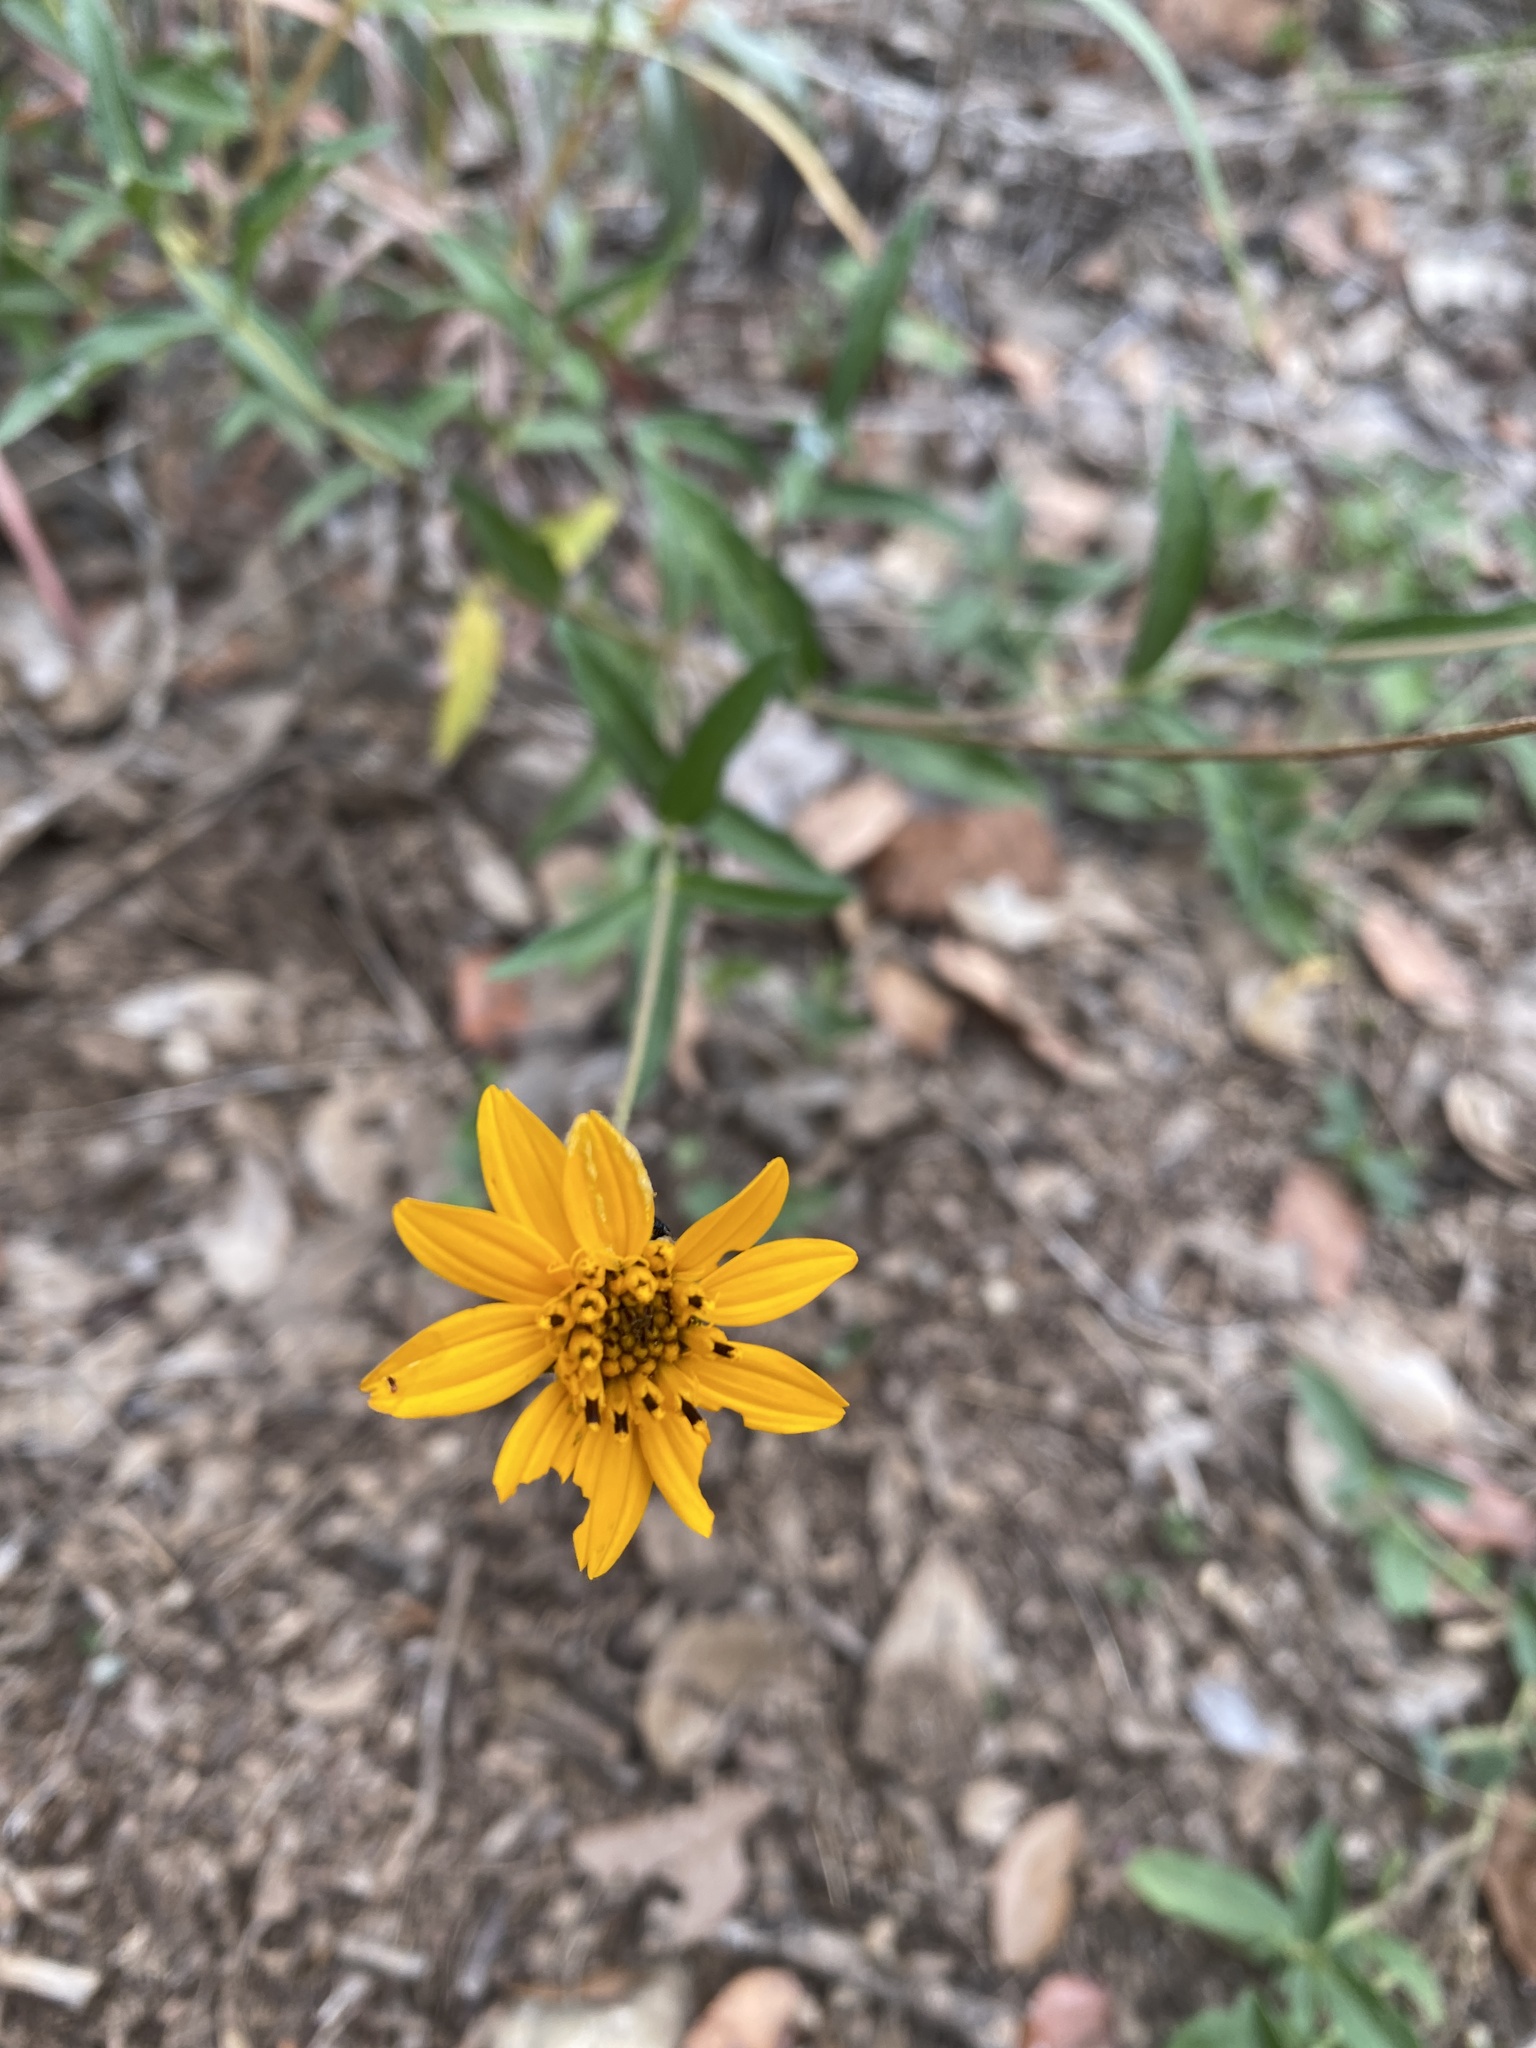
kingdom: Plantae
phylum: Tracheophyta
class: Magnoliopsida
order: Asterales
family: Asteraceae
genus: Wedelia
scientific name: Wedelia acapulcensis
